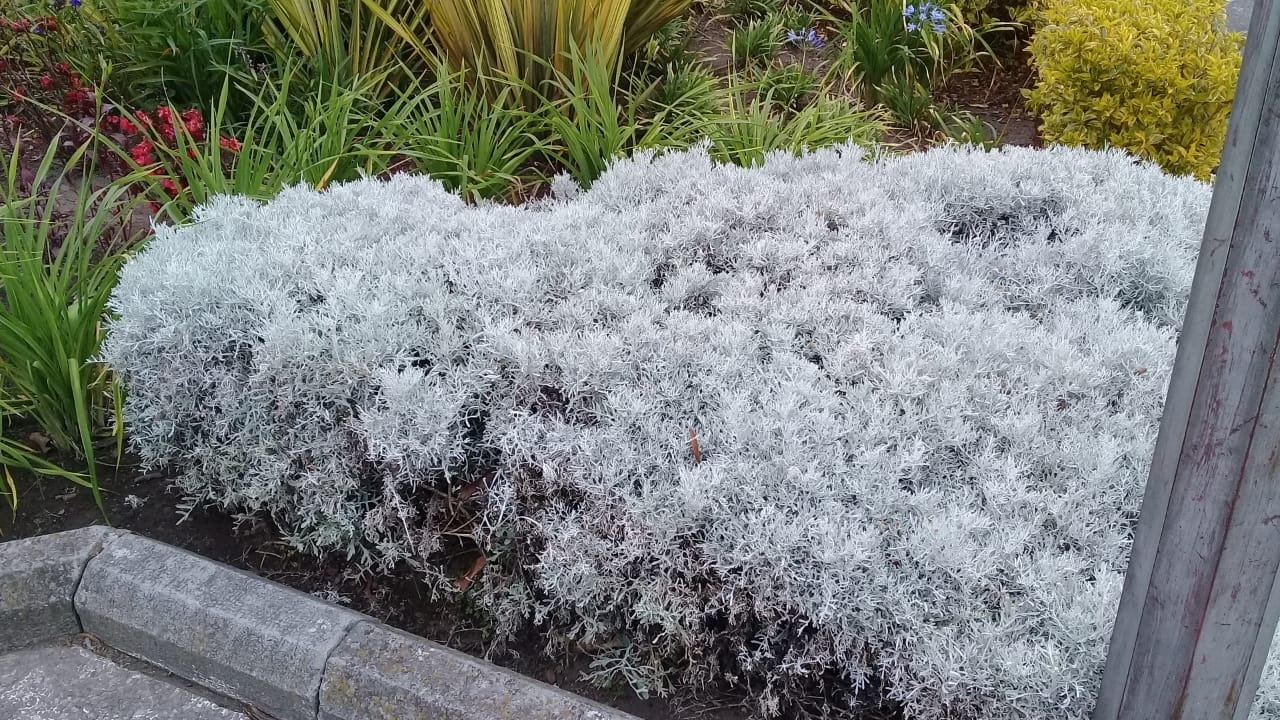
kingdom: Plantae
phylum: Tracheophyta
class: Magnoliopsida
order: Asterales
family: Asteraceae
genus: Senecio
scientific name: Senecio leucostachys
